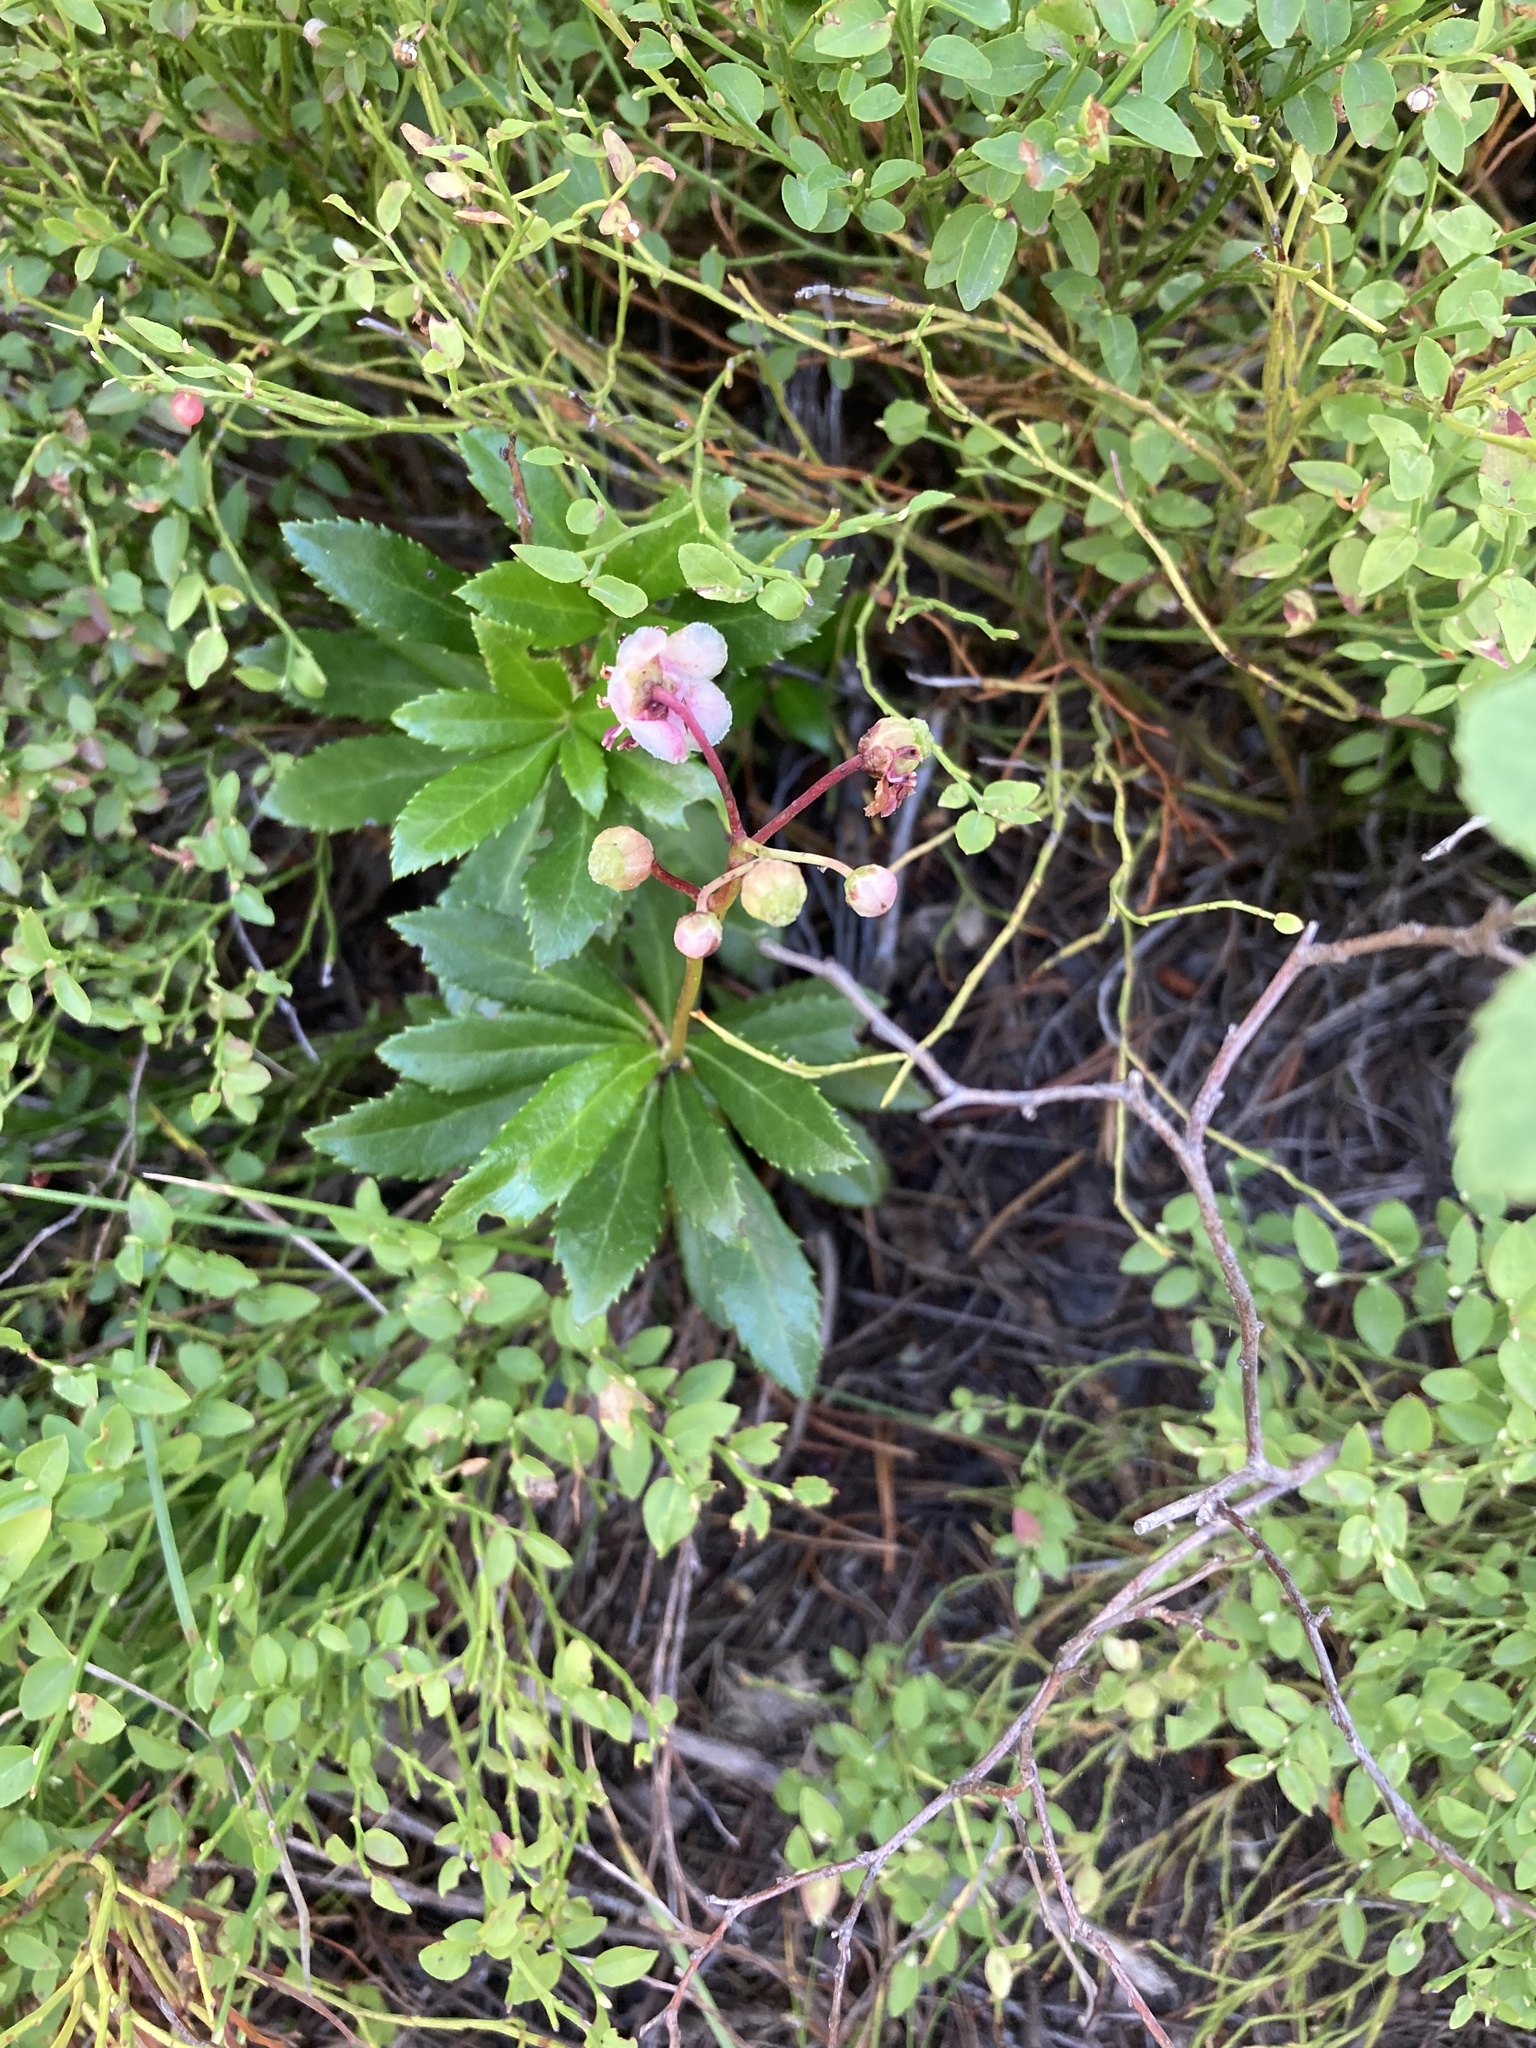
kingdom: Plantae
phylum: Tracheophyta
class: Magnoliopsida
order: Ericales
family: Ericaceae
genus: Chimaphila
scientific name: Chimaphila umbellata
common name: Pipsissewa
